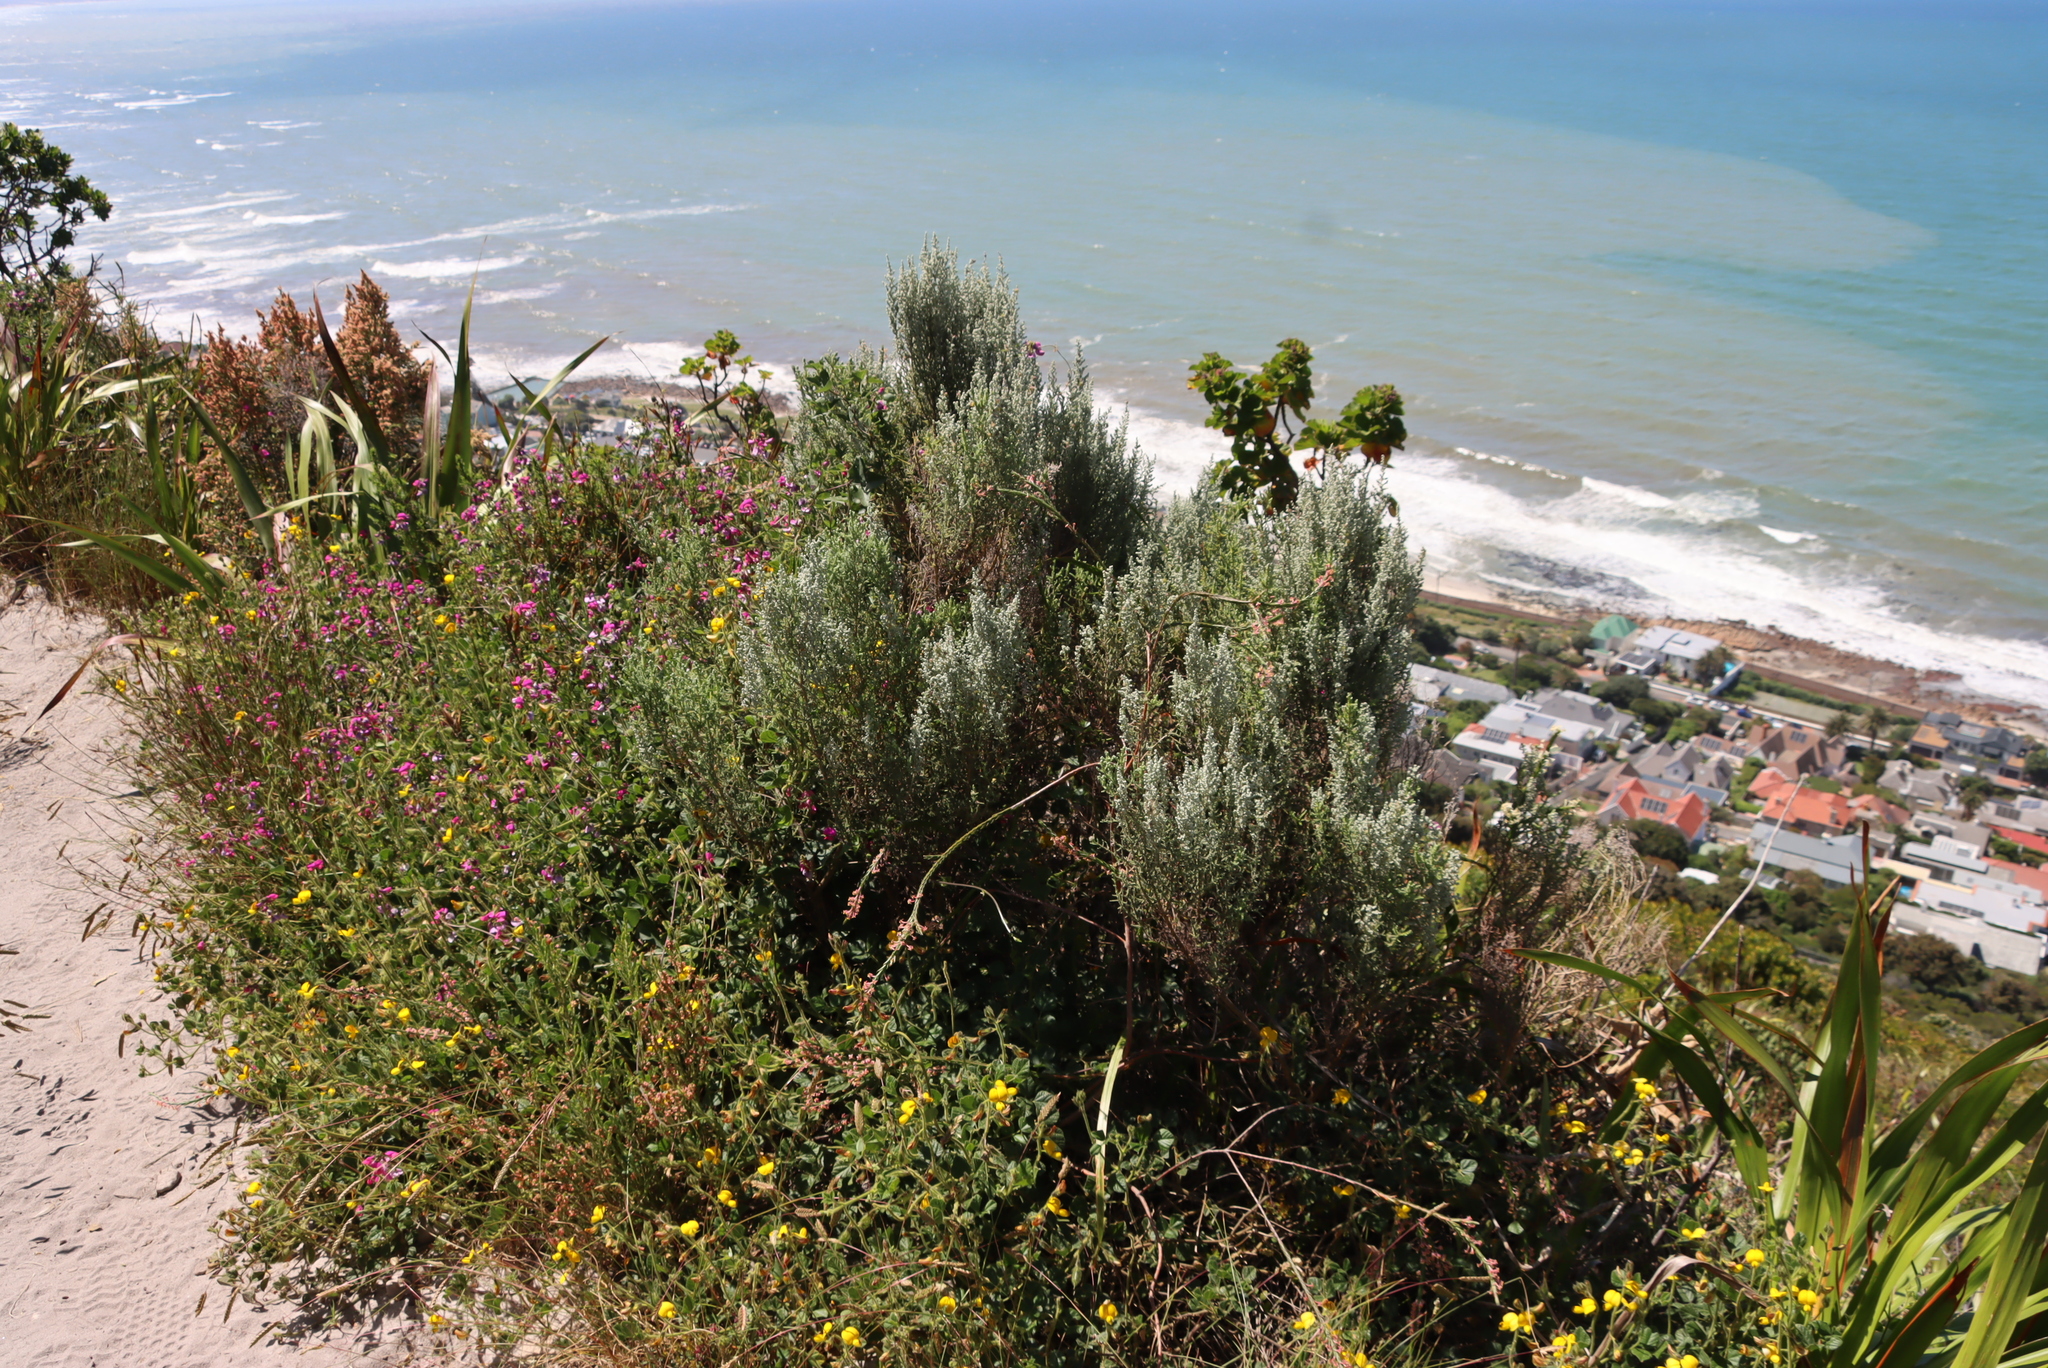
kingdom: Plantae
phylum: Tracheophyta
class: Magnoliopsida
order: Asterales
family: Asteraceae
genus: Seriphium
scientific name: Seriphium cinereum
